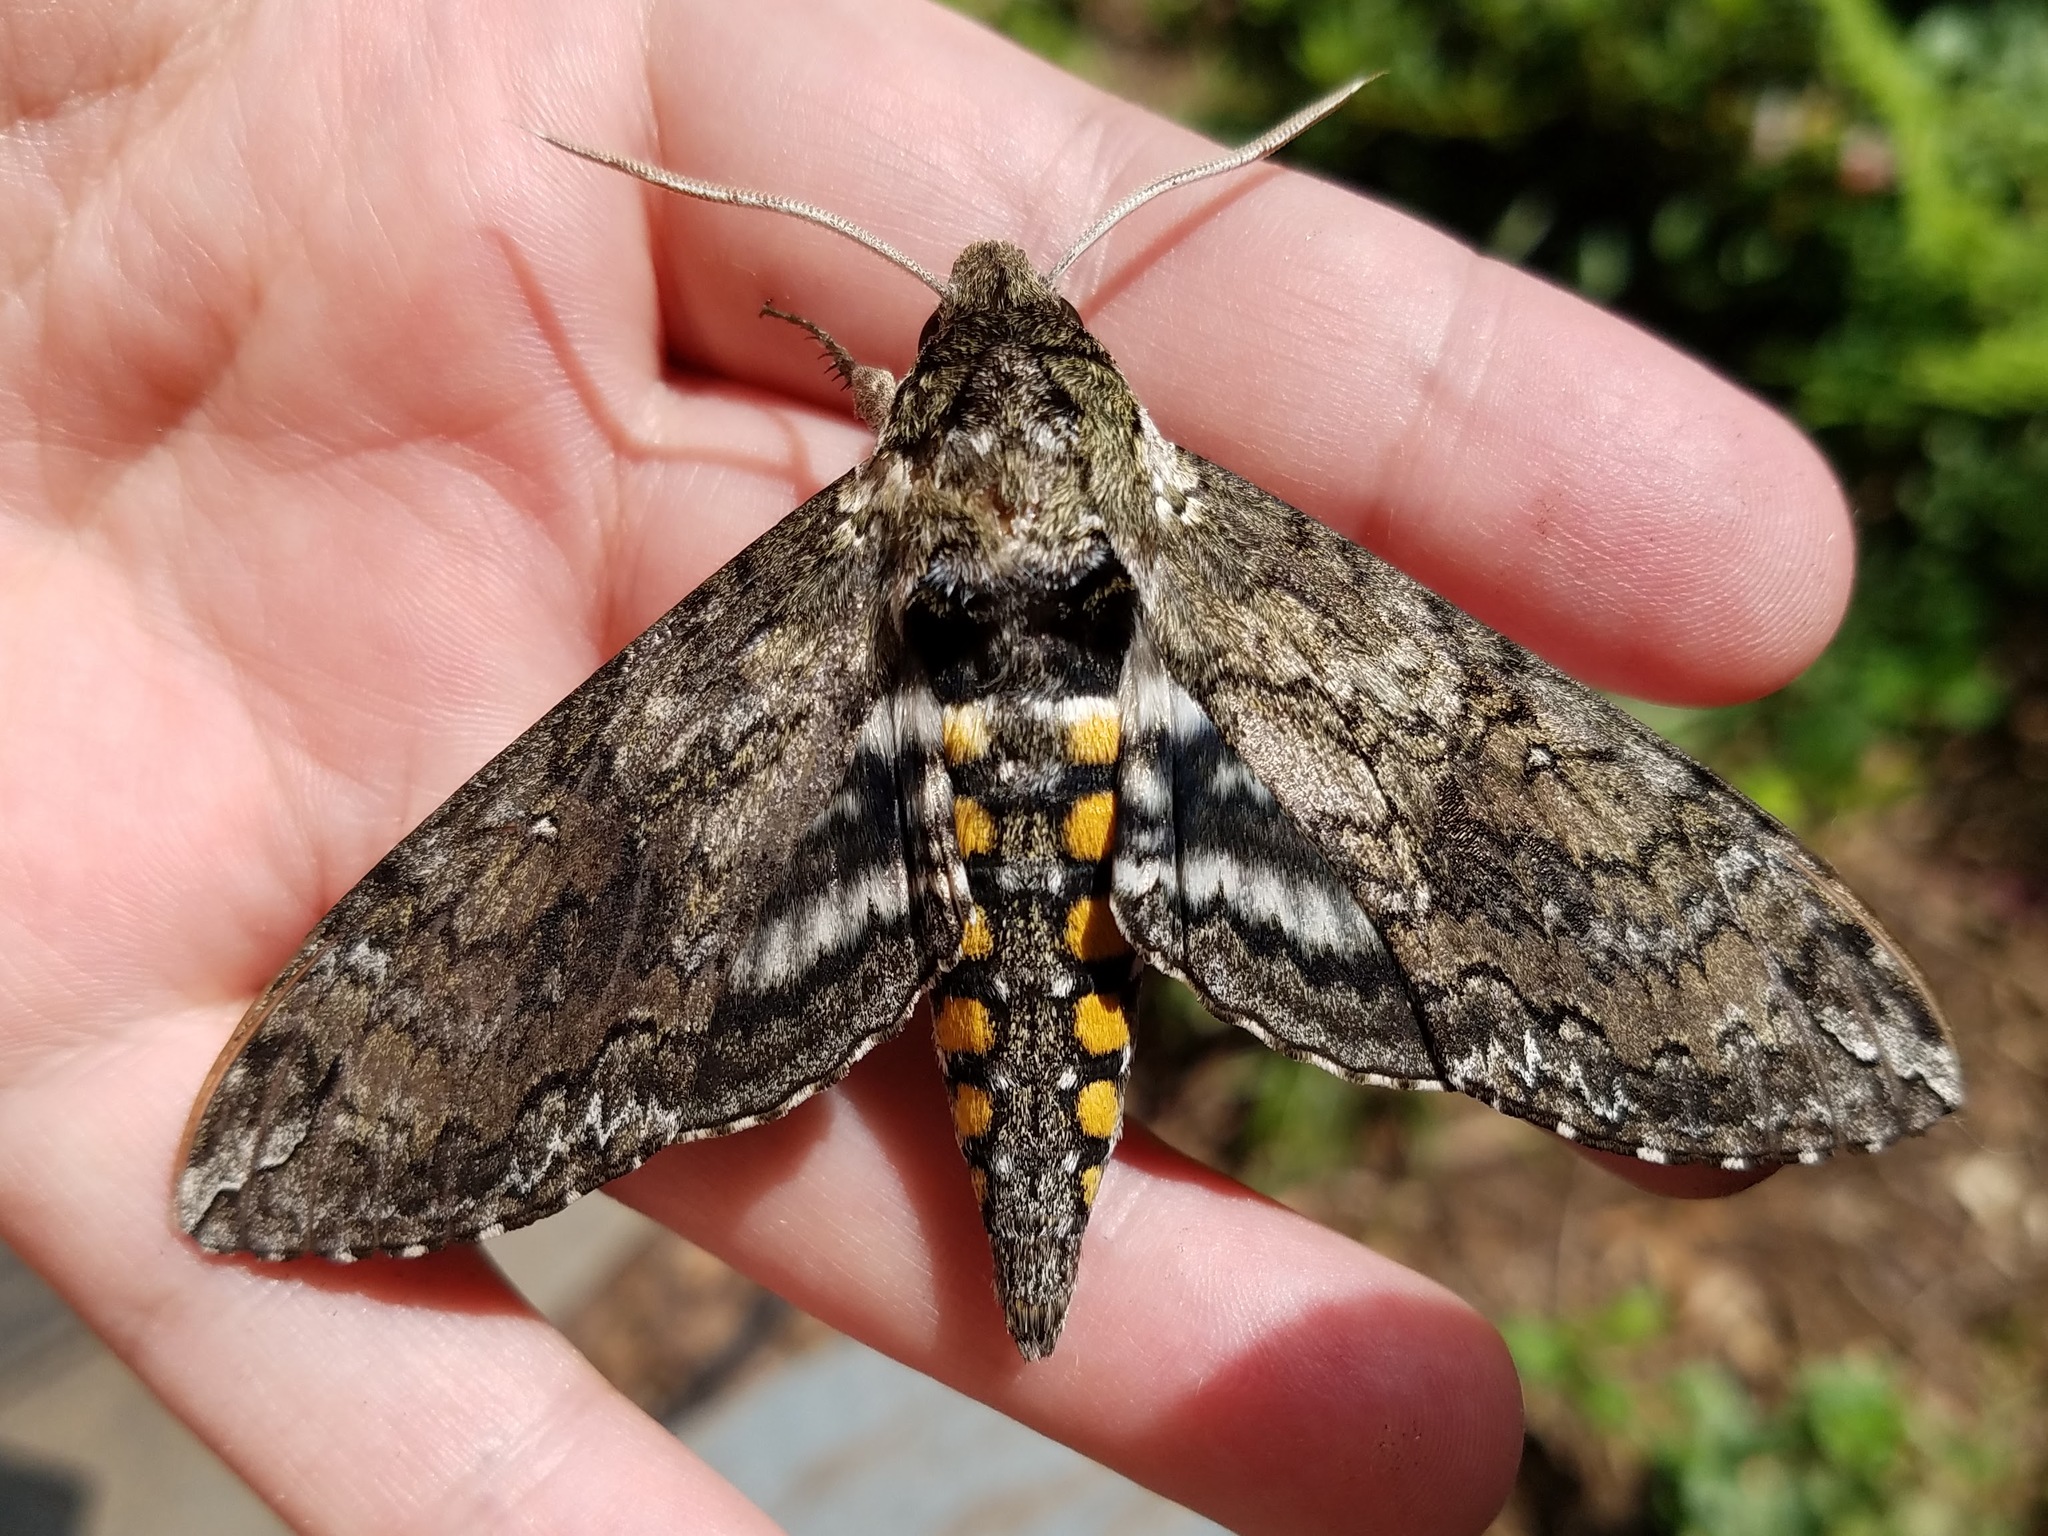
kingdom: Animalia
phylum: Arthropoda
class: Insecta
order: Lepidoptera
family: Sphingidae
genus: Manduca
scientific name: Manduca sexta
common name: Carolina sphinx
